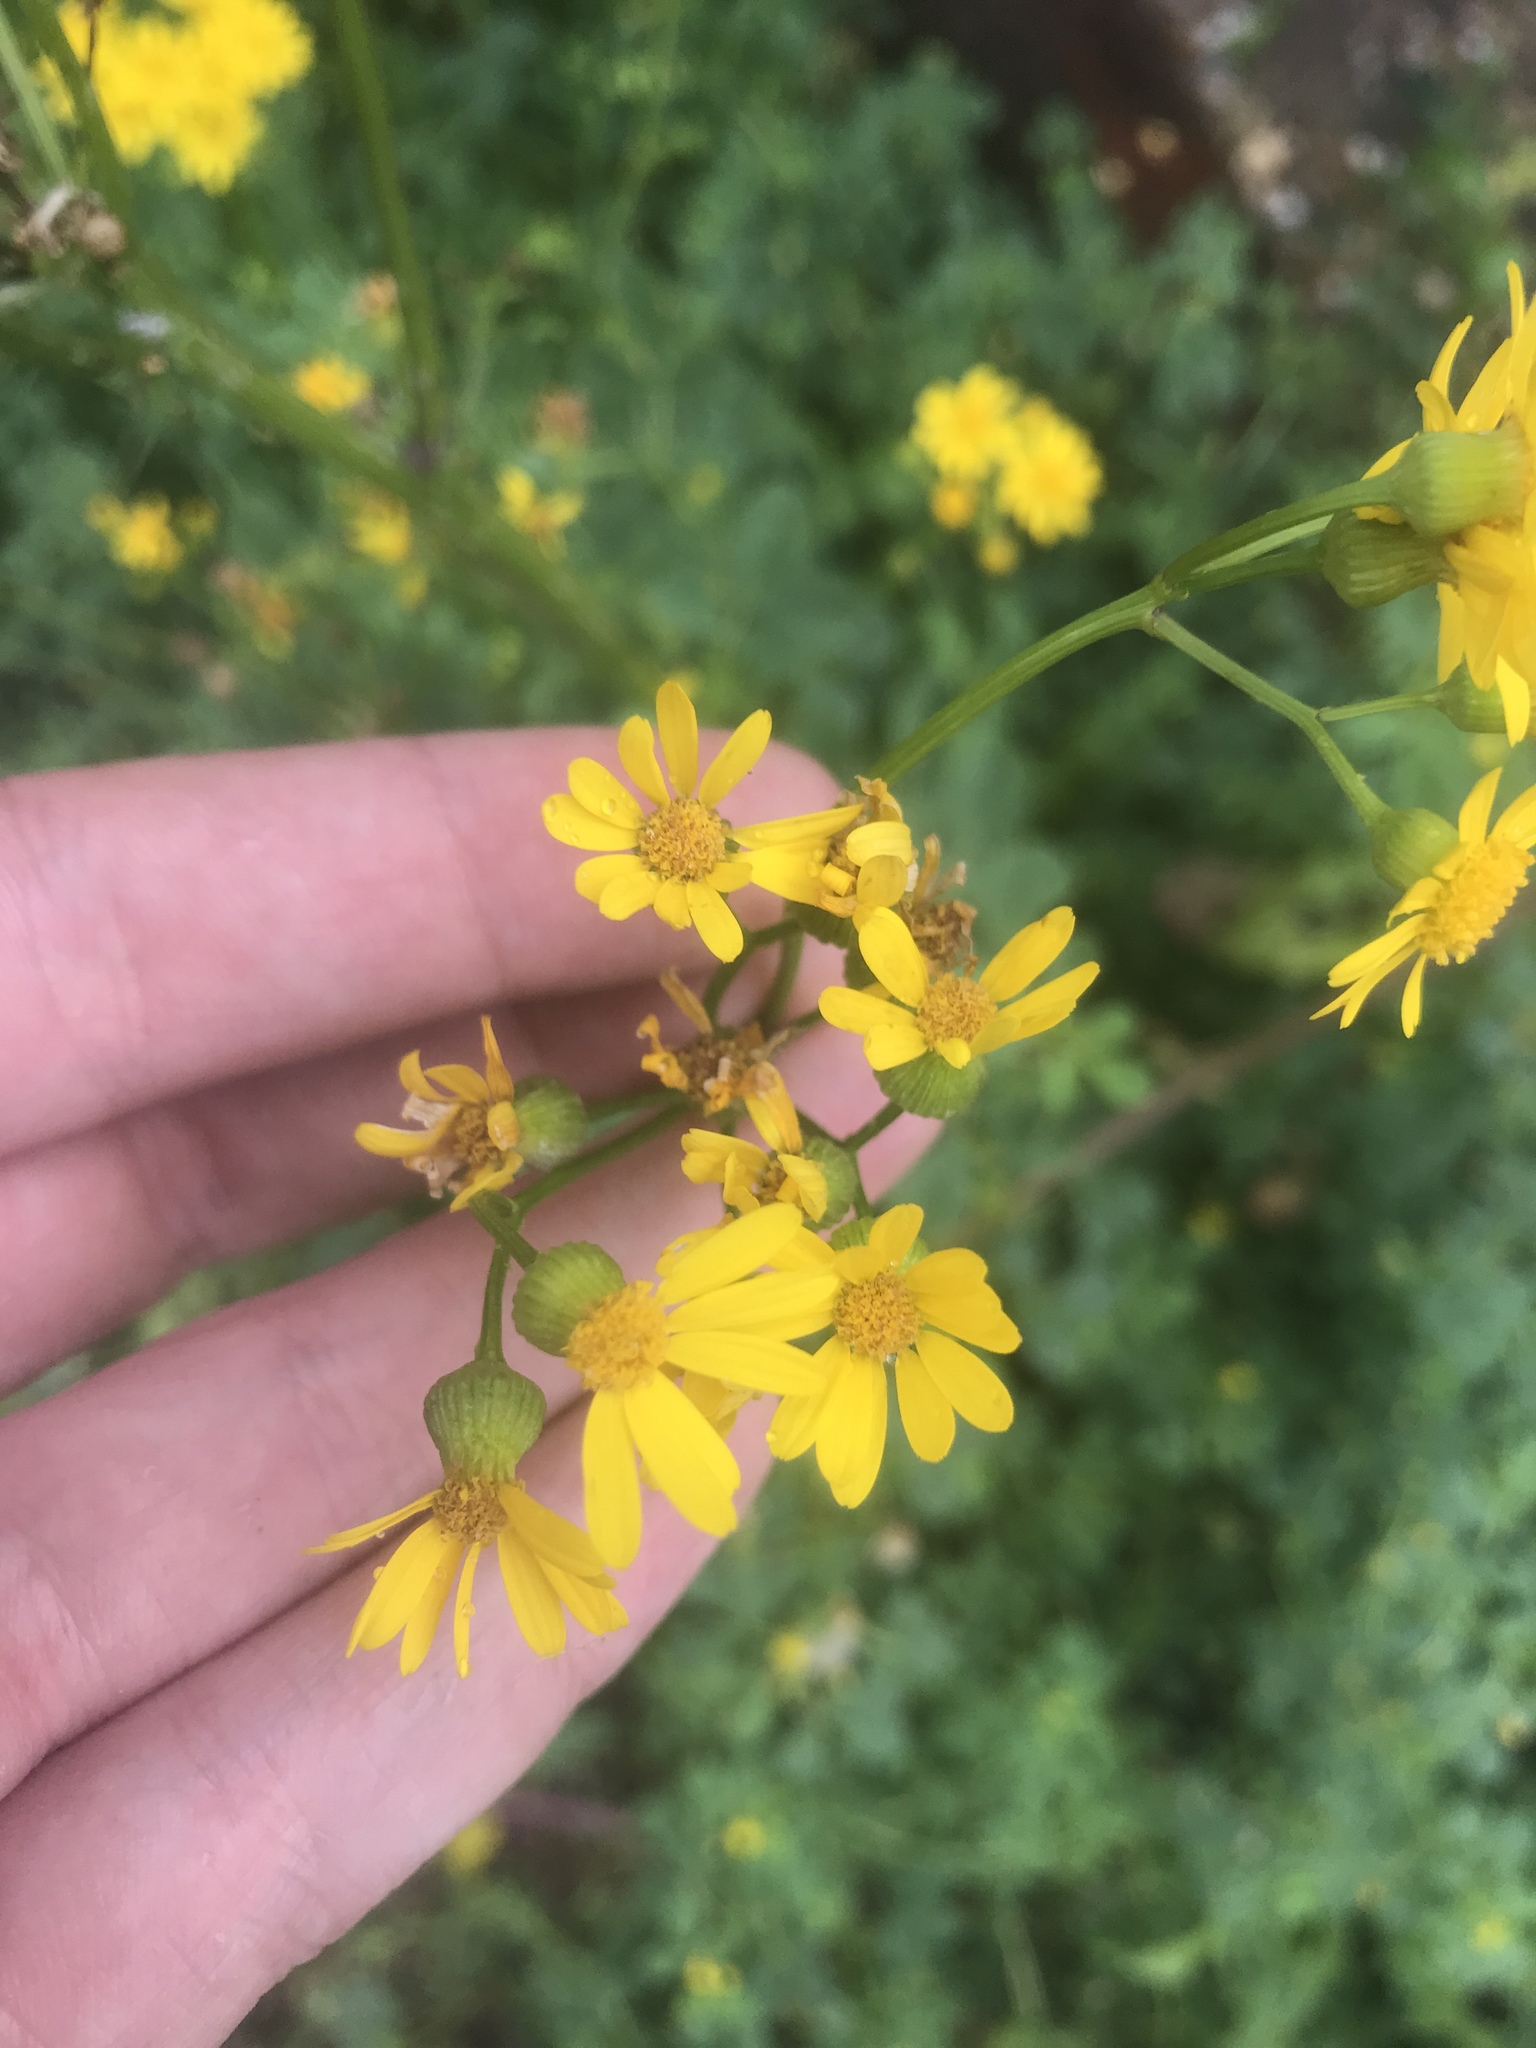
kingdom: Plantae
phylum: Tracheophyta
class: Magnoliopsida
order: Asterales
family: Asteraceae
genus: Packera
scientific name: Packera glabella
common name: Butterweed
